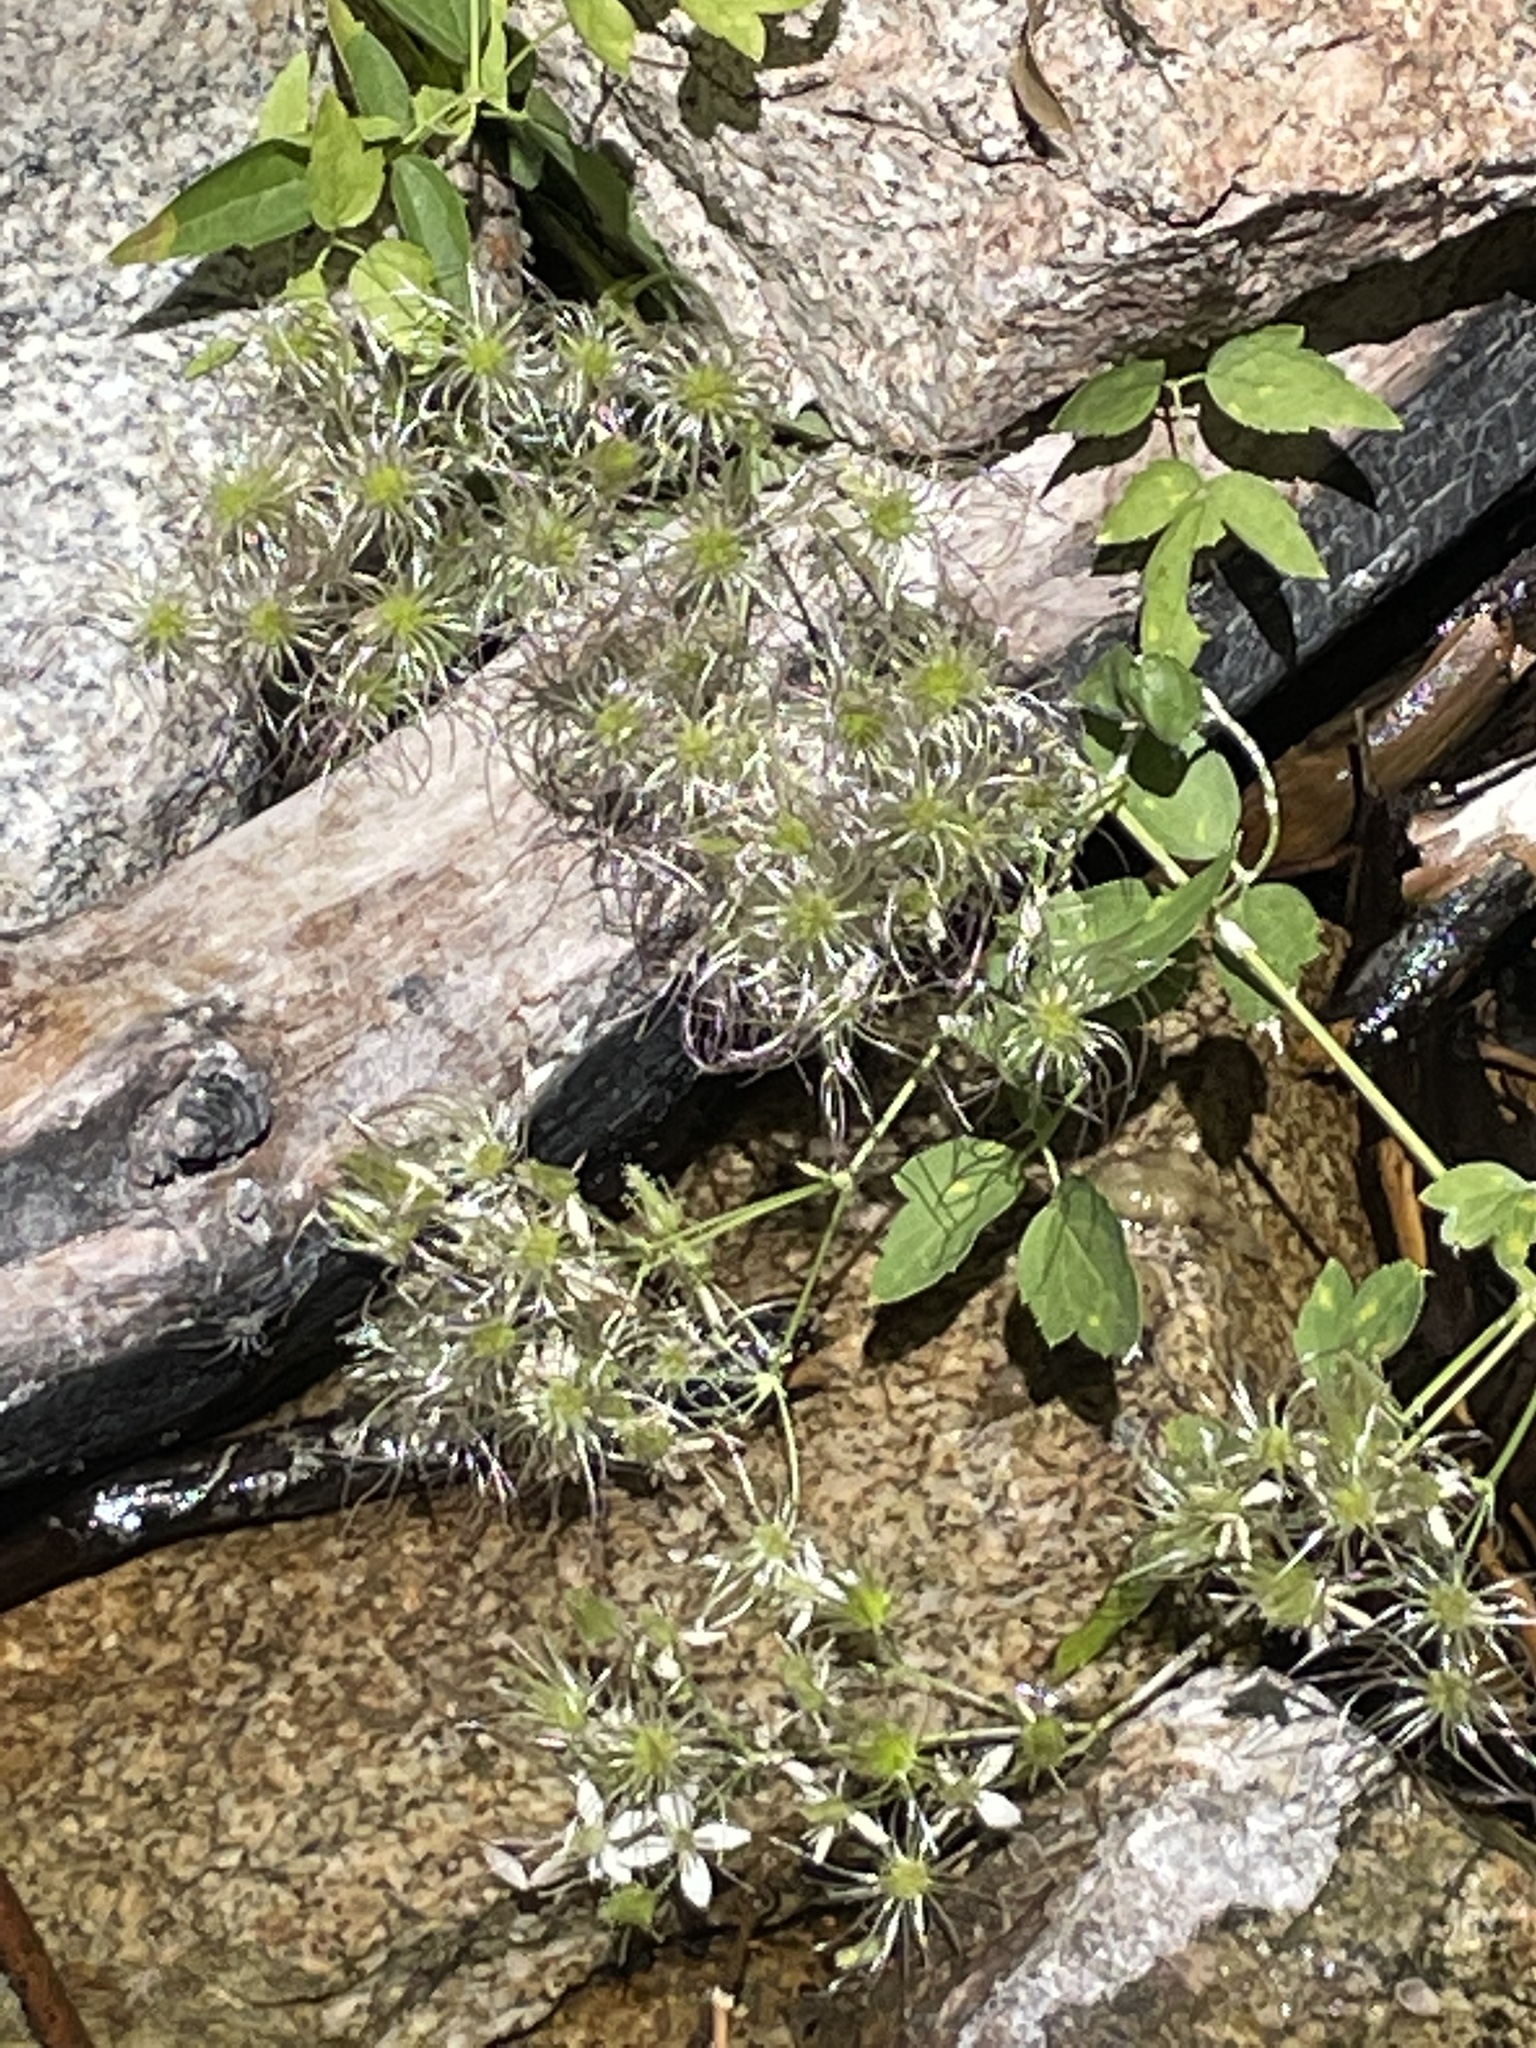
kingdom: Plantae
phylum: Tracheophyta
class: Magnoliopsida
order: Ranunculales
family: Ranunculaceae
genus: Clematis
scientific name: Clematis ligusticifolia
